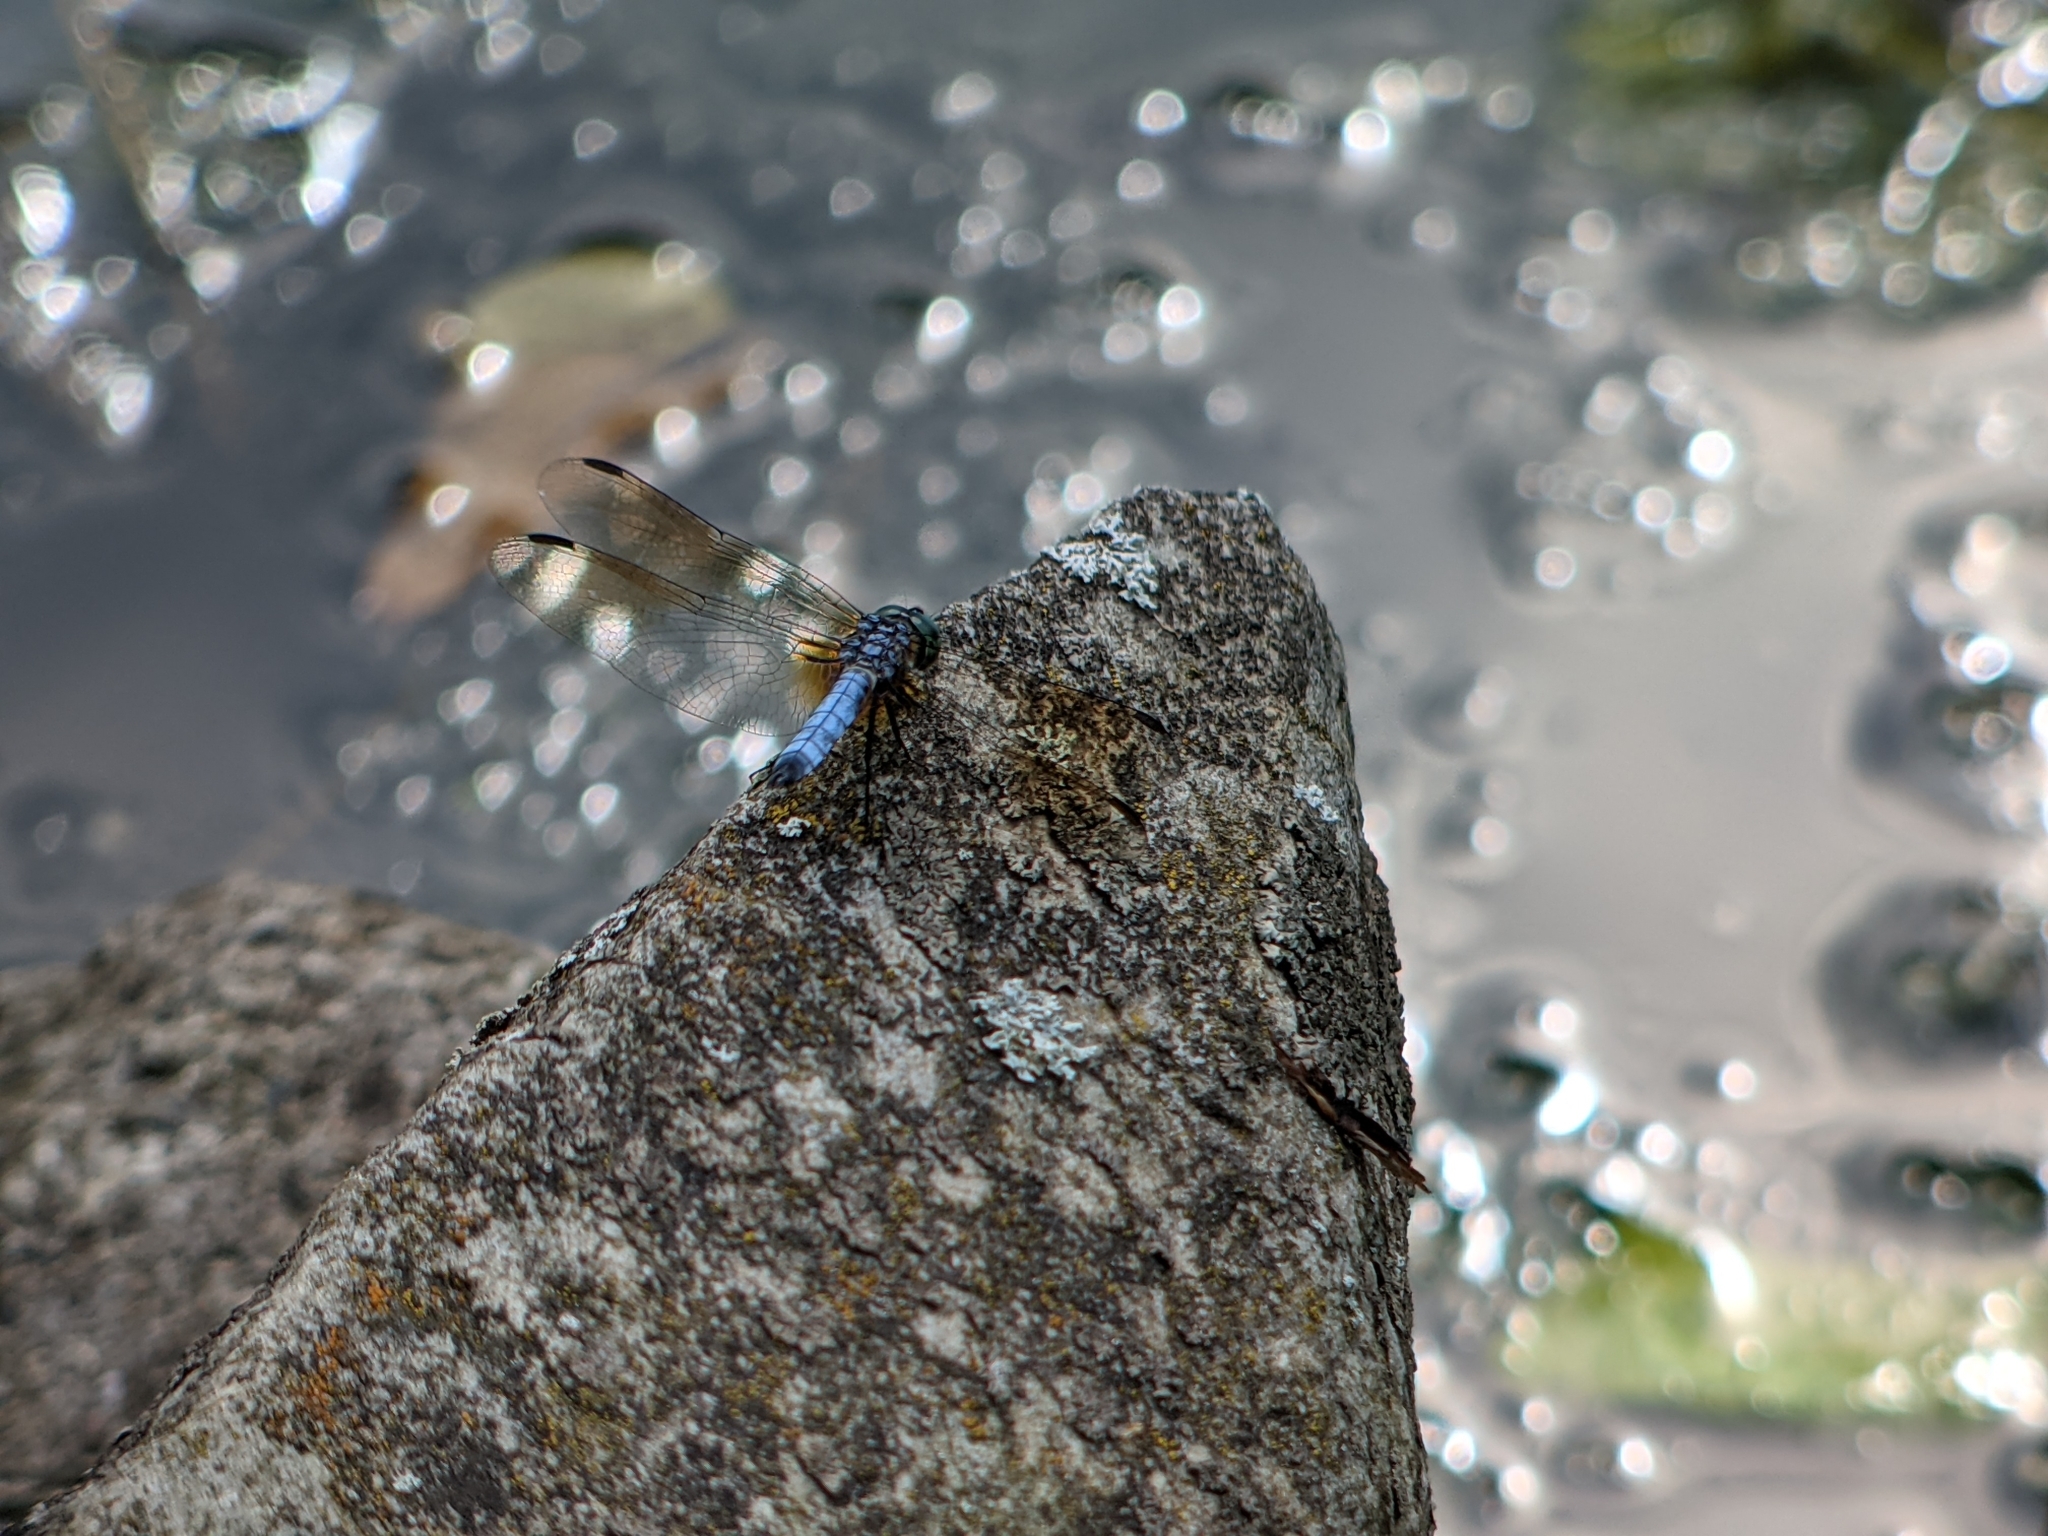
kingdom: Animalia
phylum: Arthropoda
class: Insecta
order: Odonata
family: Libellulidae
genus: Pachydiplax
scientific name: Pachydiplax longipennis
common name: Blue dasher
